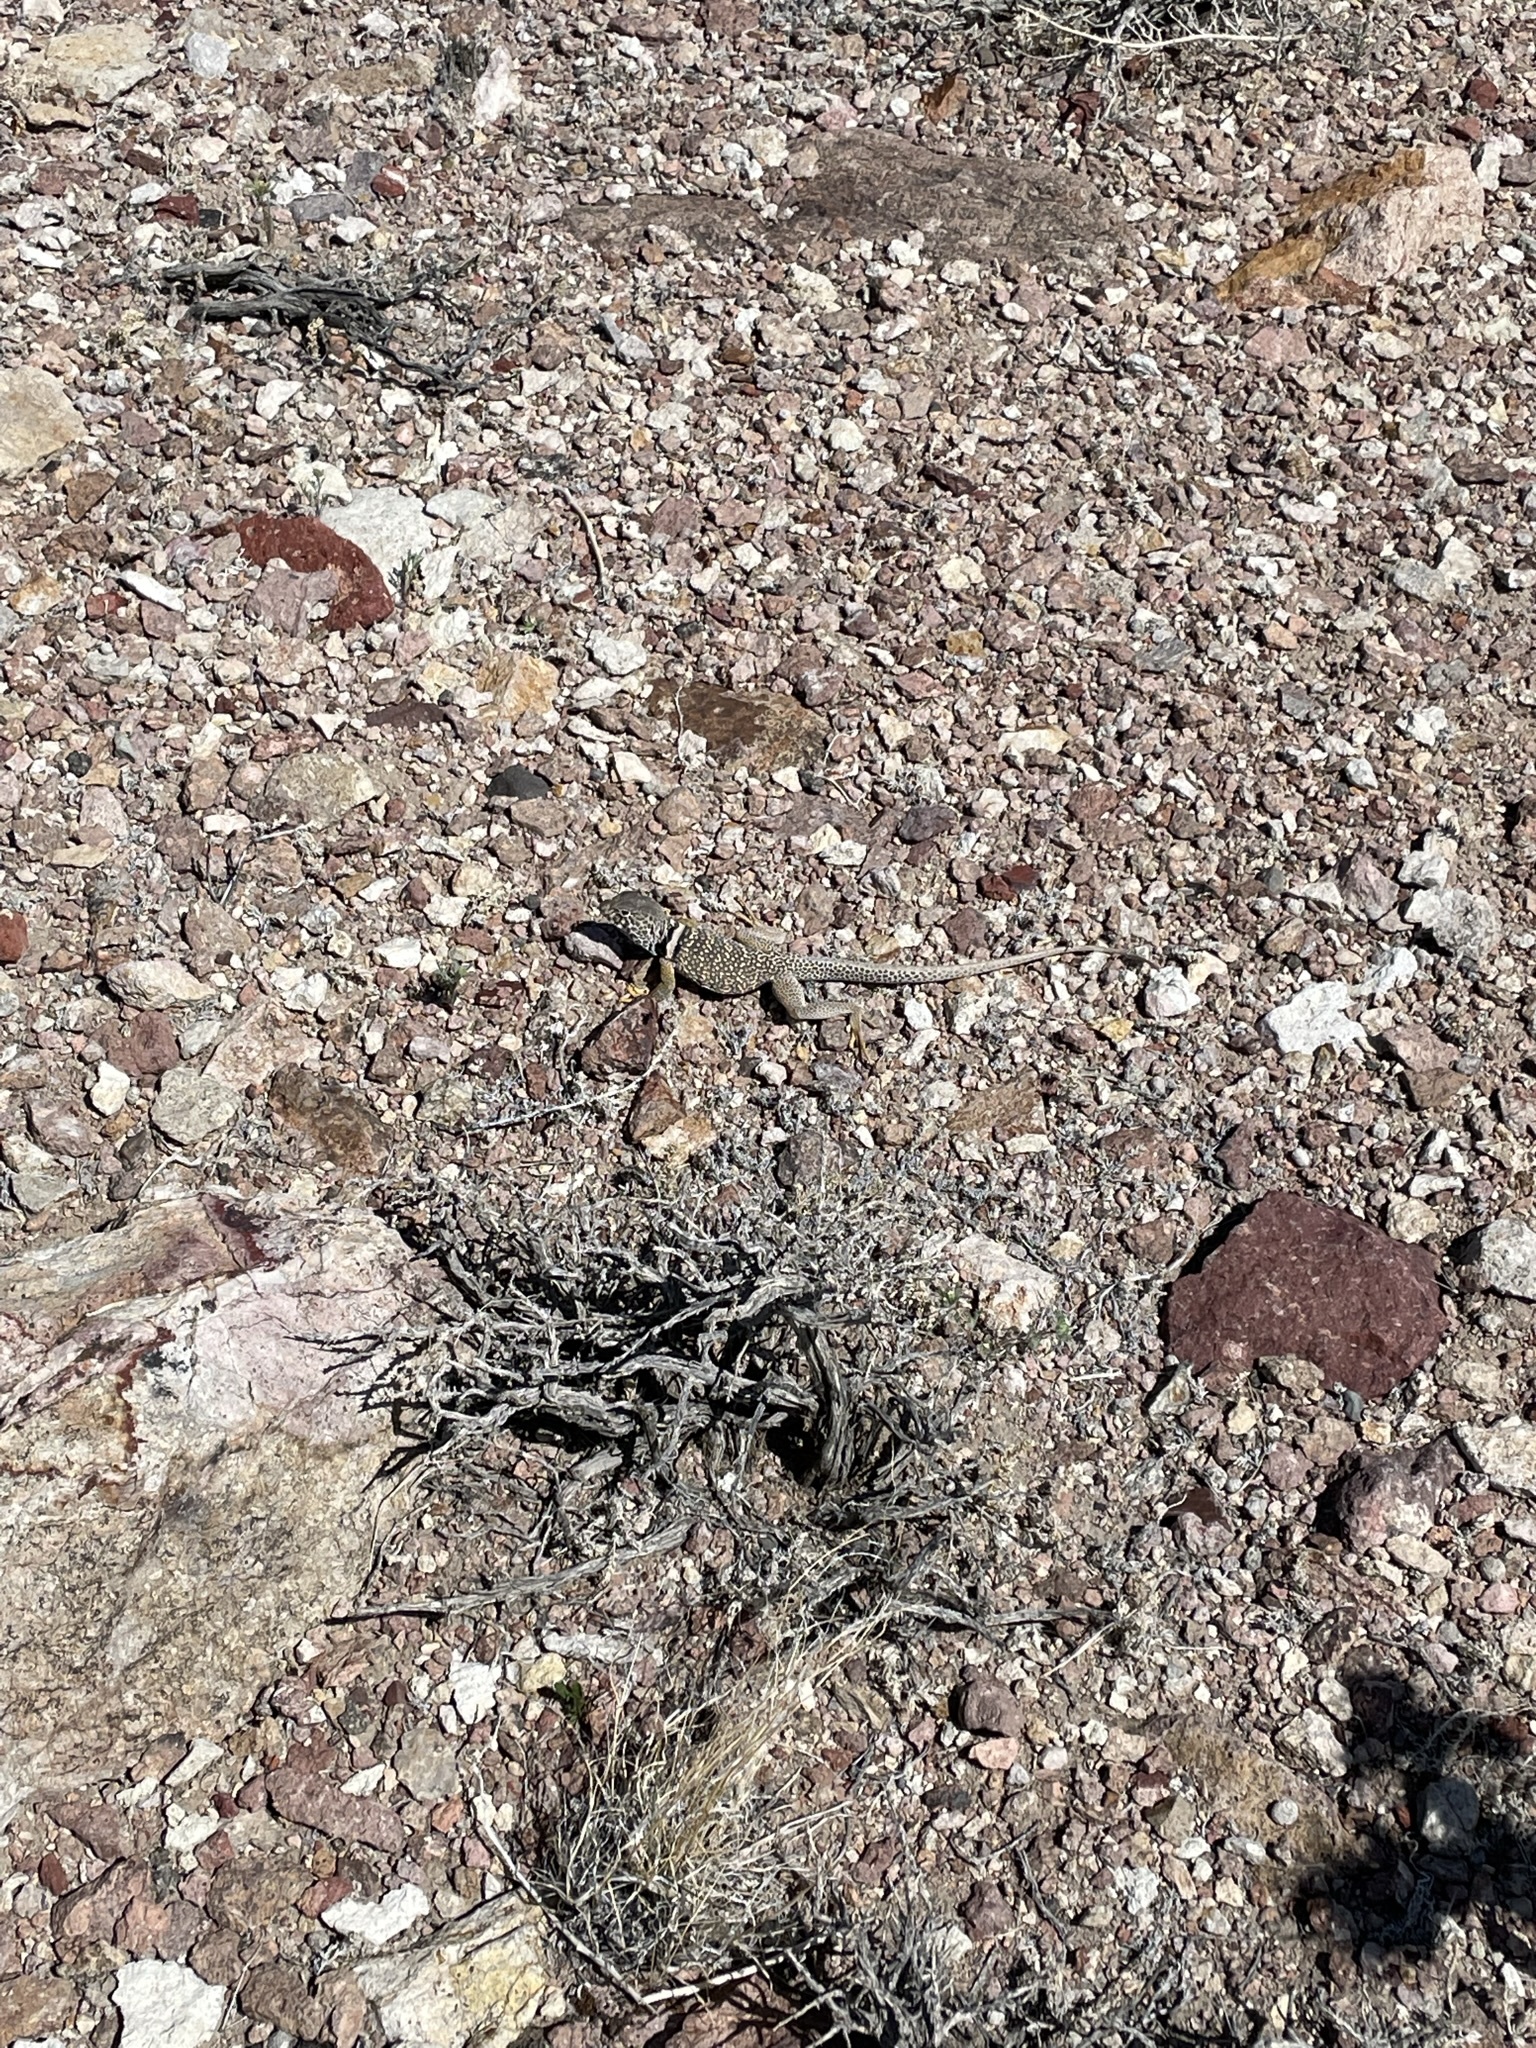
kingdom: Animalia
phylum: Chordata
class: Squamata
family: Crotaphytidae
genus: Crotaphytus
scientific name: Crotaphytus bicinctores
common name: Mojave black-collared lizard
